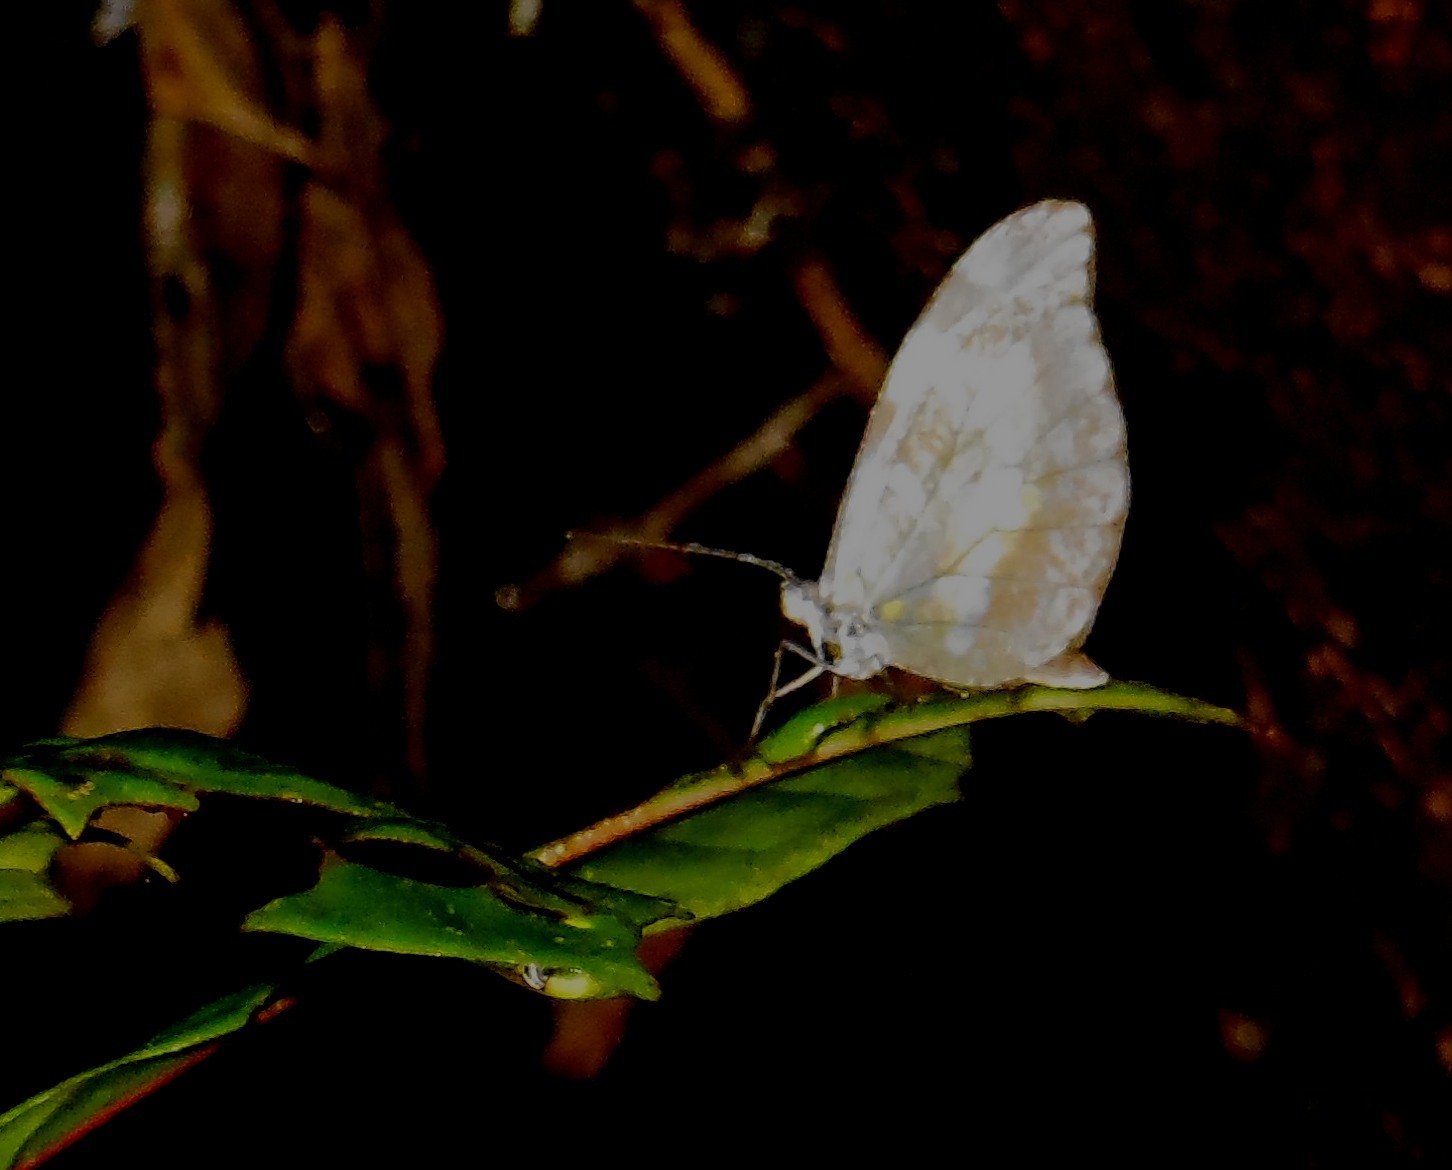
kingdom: Animalia
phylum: Arthropoda
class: Insecta
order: Lepidoptera
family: Pieridae
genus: Dismorphia
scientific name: Dismorphia crisia
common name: Crisia mimic-white
